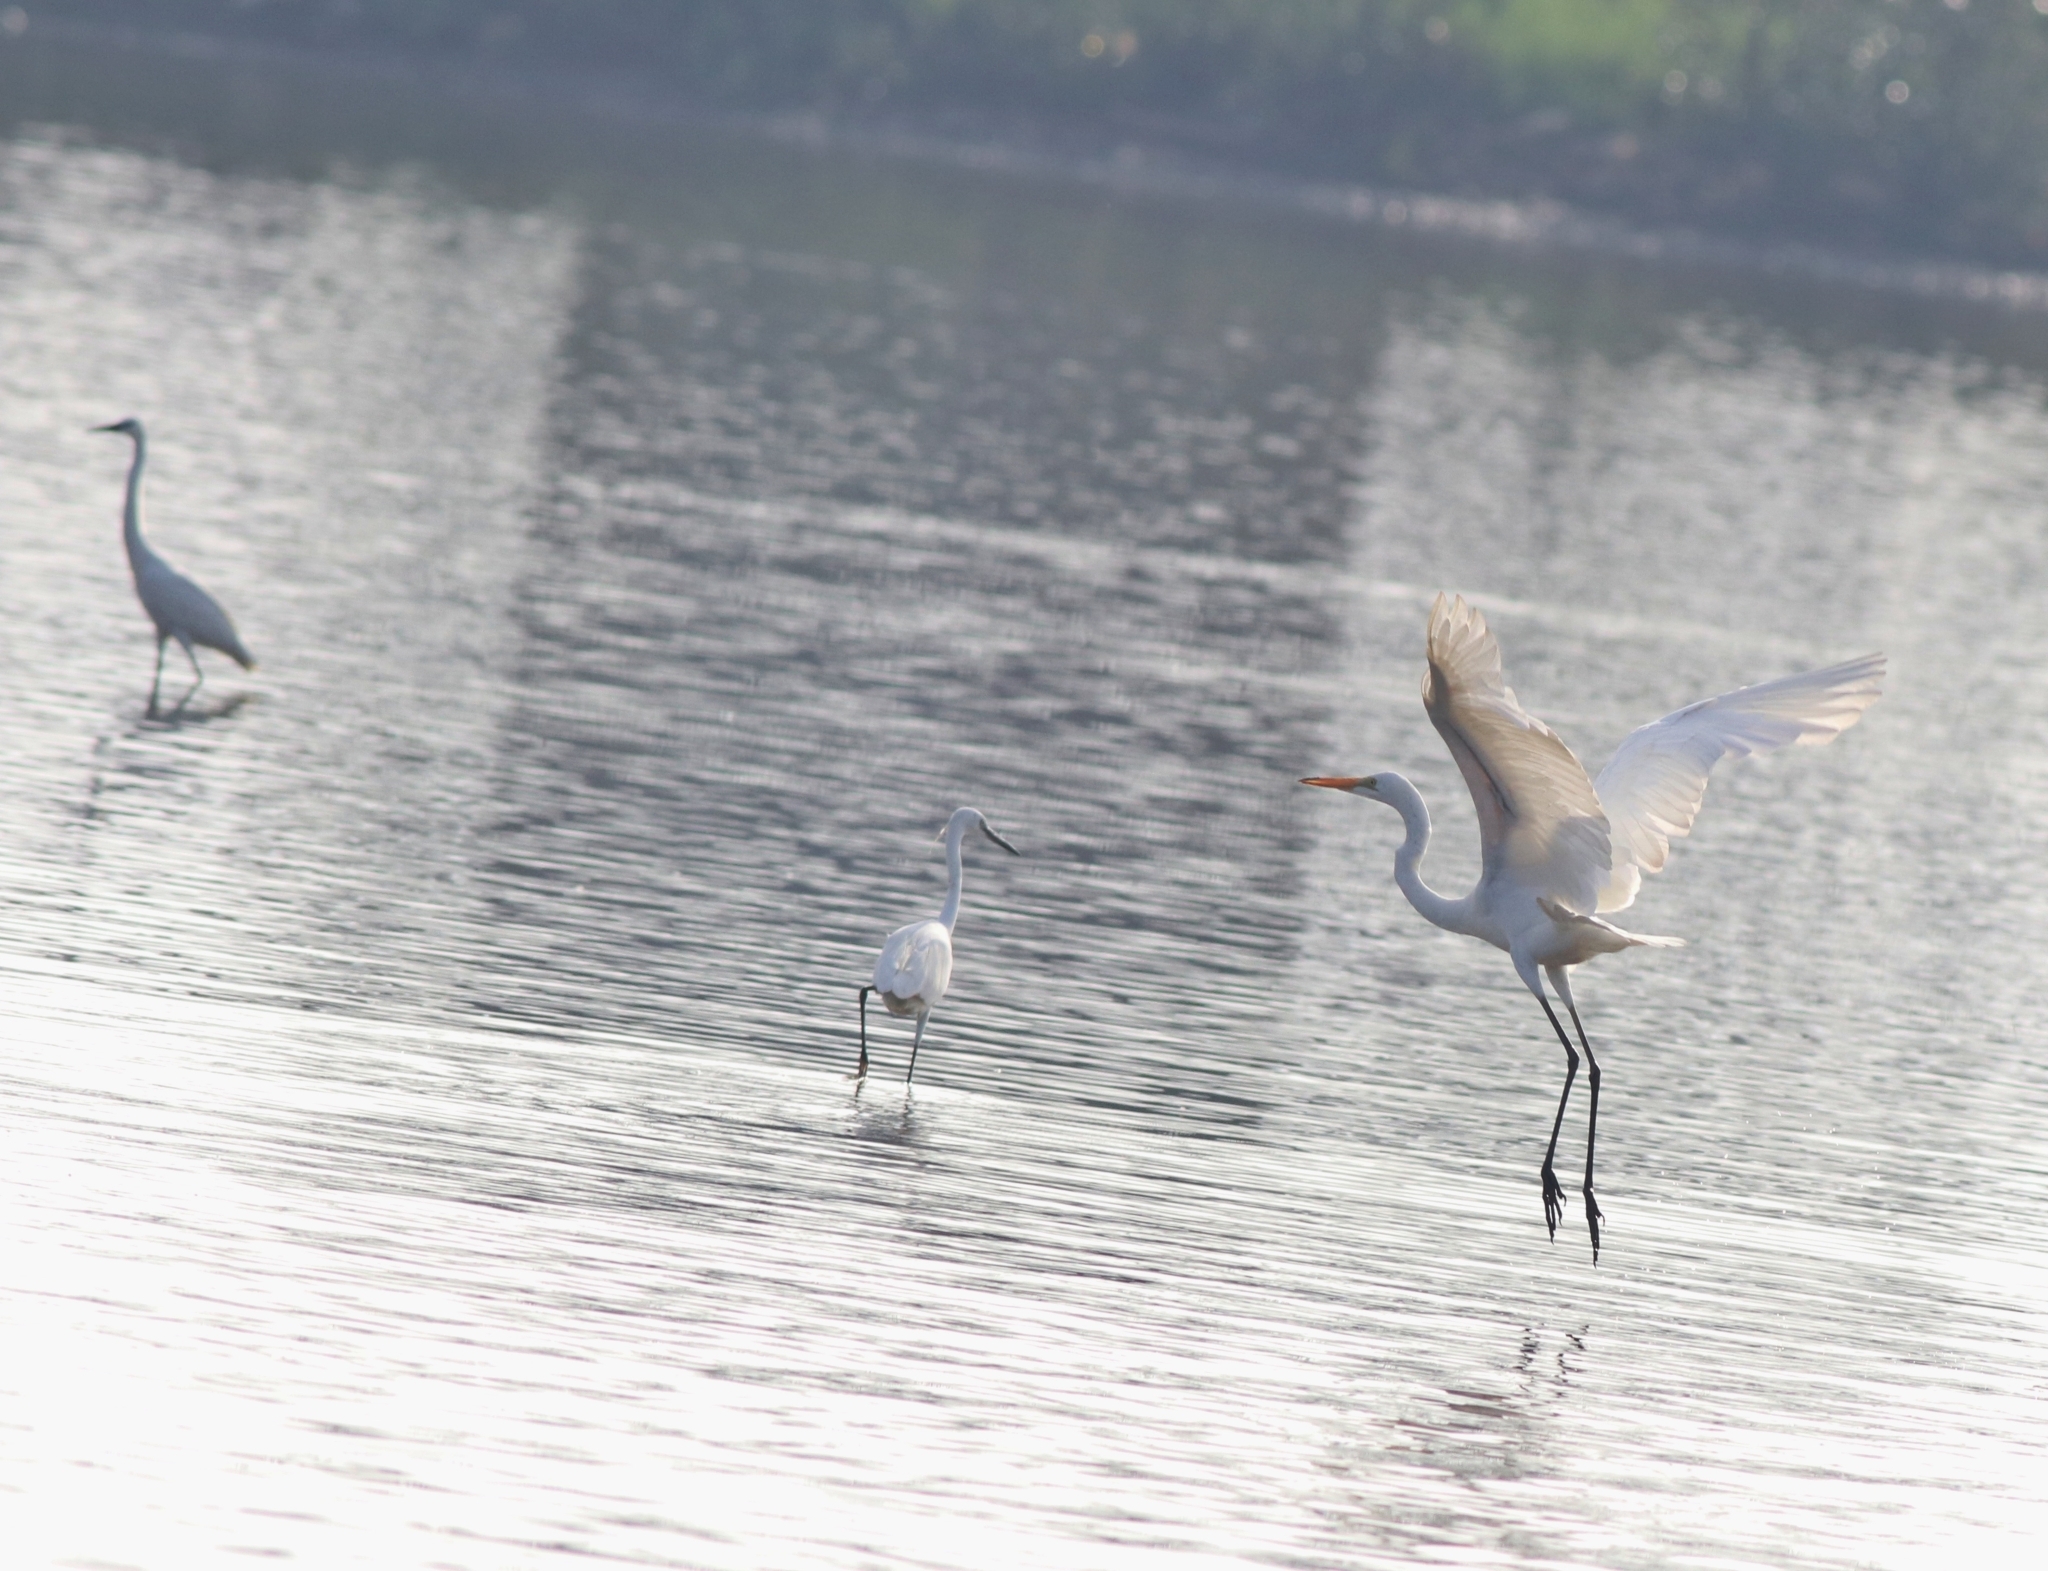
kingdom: Animalia
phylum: Chordata
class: Aves
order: Pelecaniformes
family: Ardeidae
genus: Ardea
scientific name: Ardea alba
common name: Great egret
